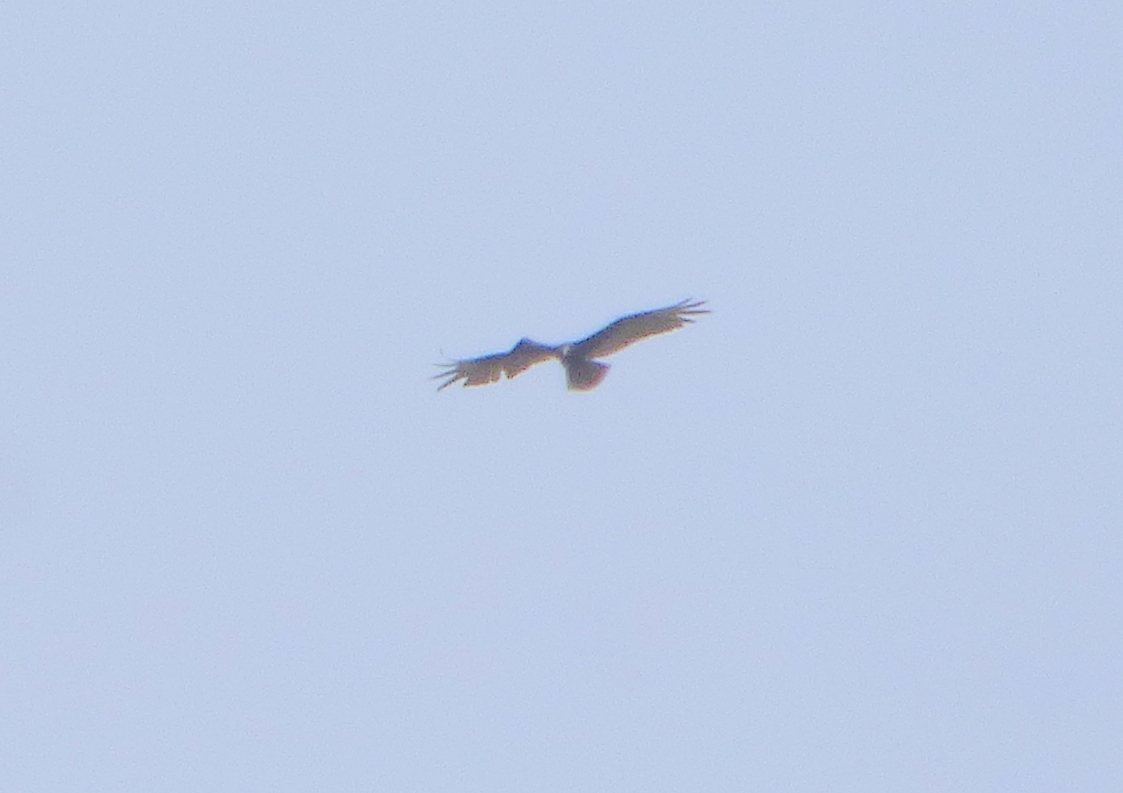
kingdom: Animalia
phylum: Chordata
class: Aves
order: Accipitriformes
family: Cathartidae
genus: Cathartes
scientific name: Cathartes aura
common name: Turkey vulture
